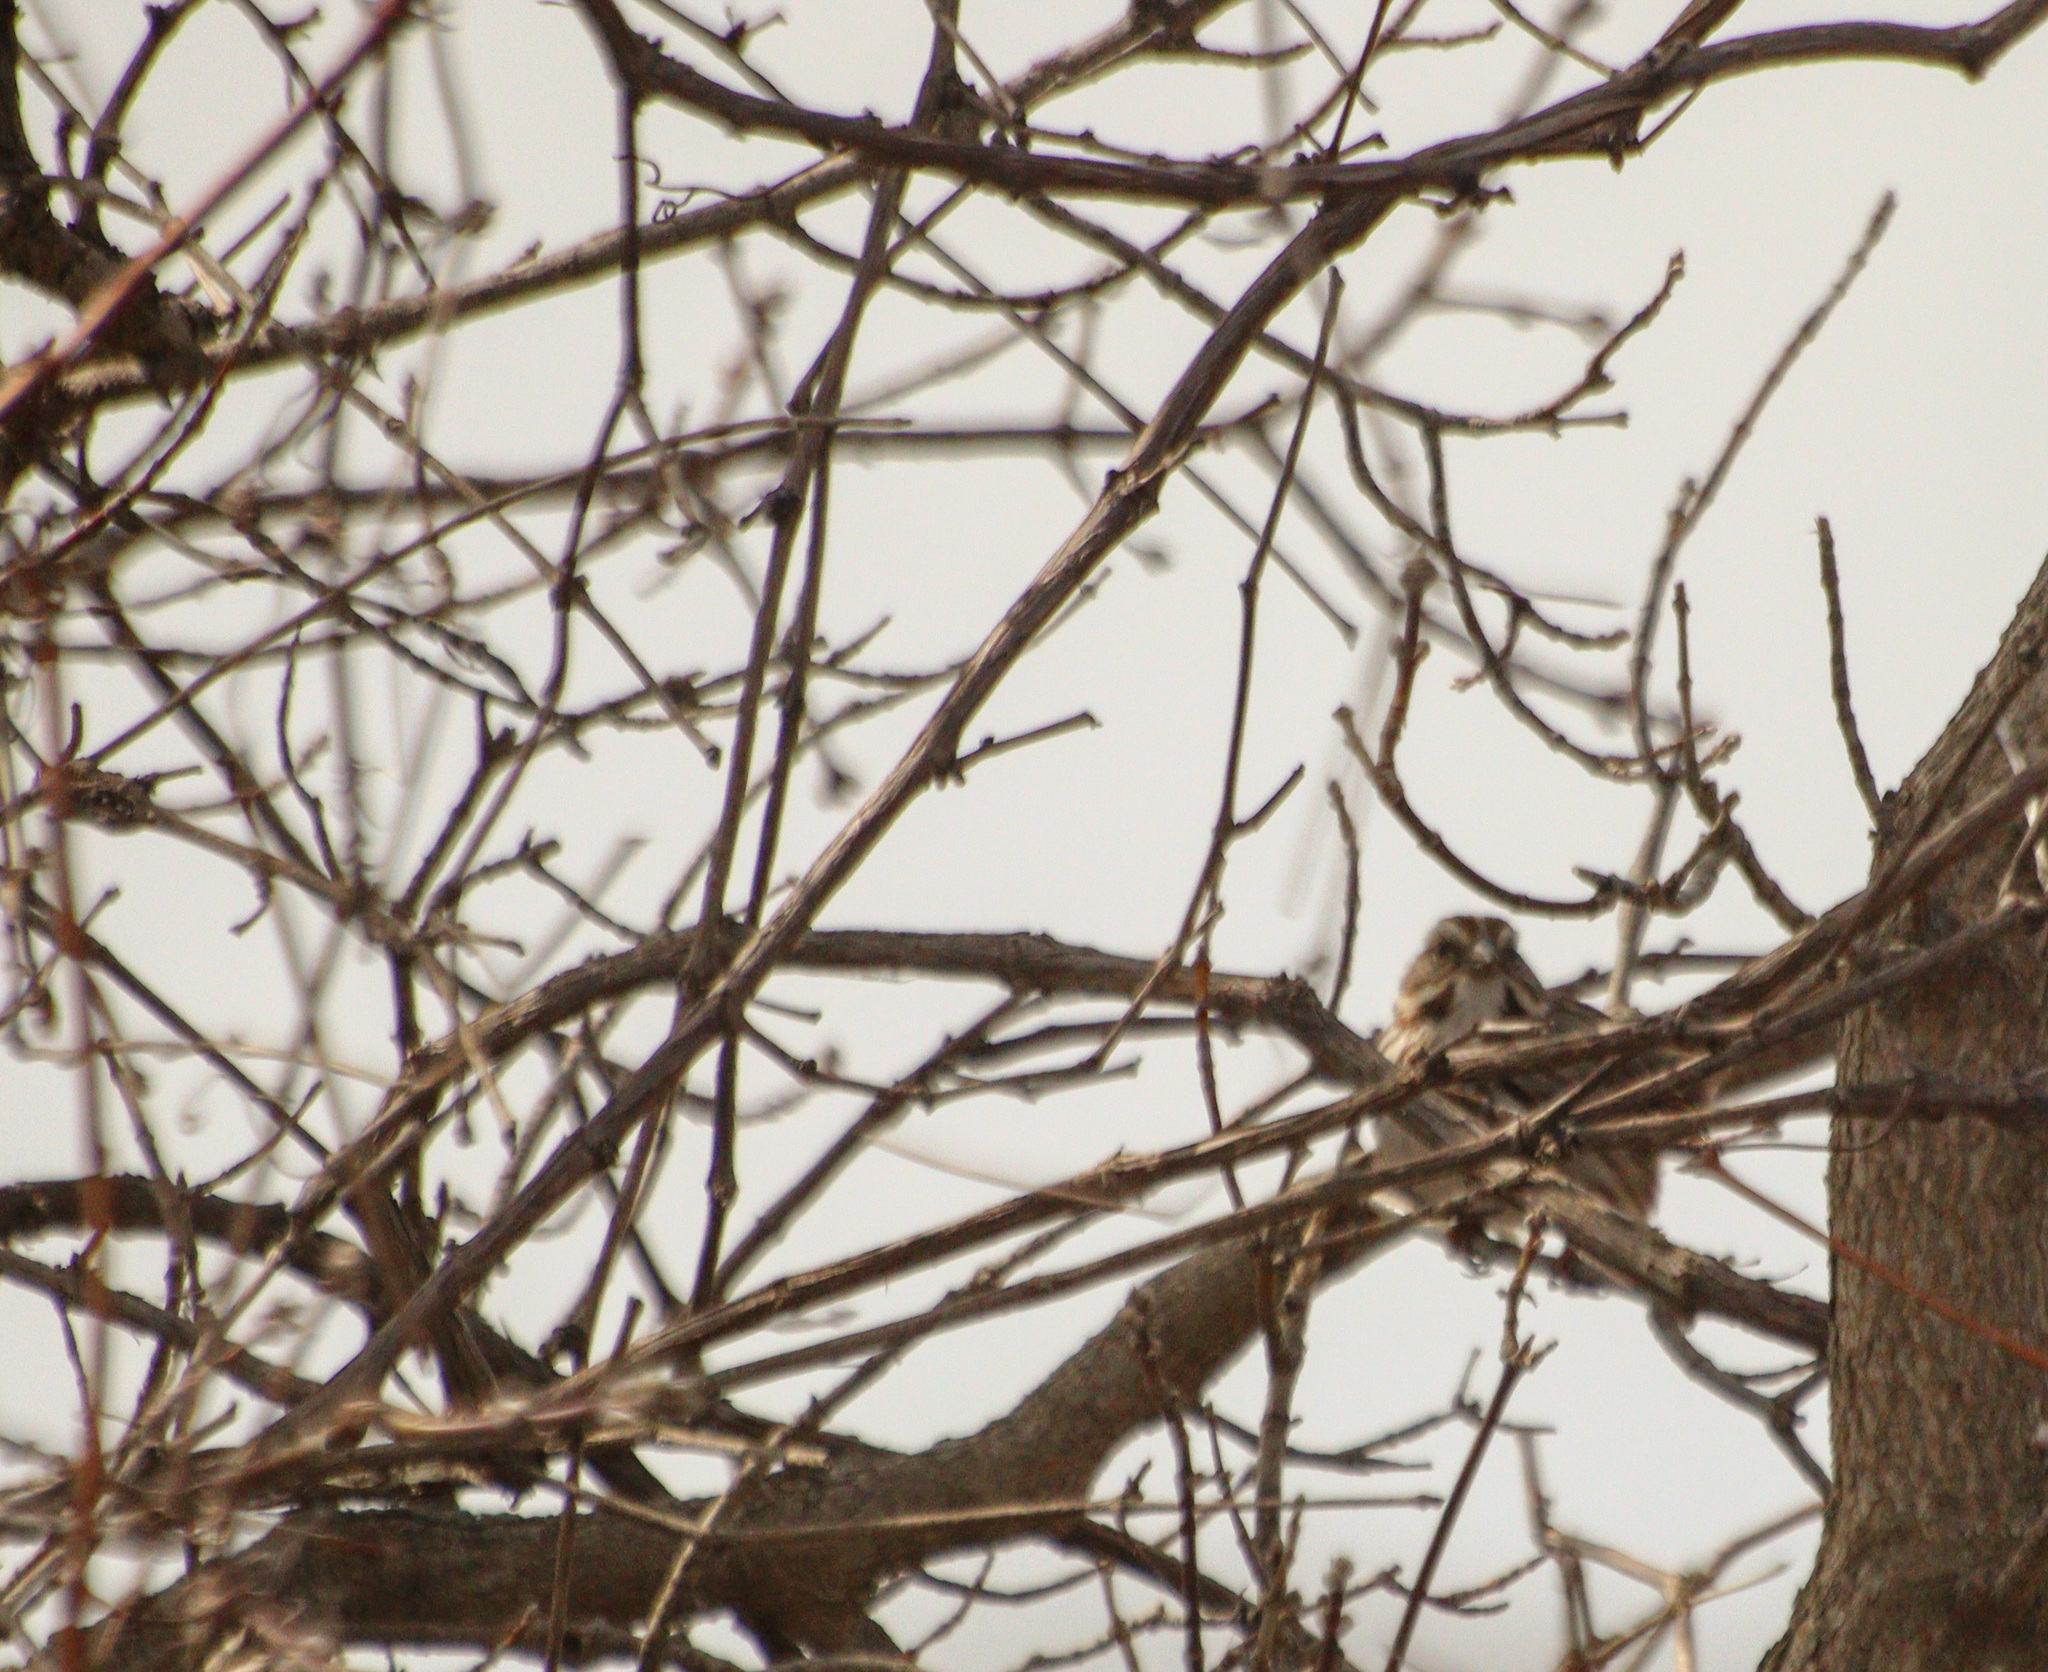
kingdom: Animalia
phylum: Chordata
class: Aves
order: Passeriformes
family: Passerellidae
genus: Melospiza
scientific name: Melospiza melodia
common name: Song sparrow
